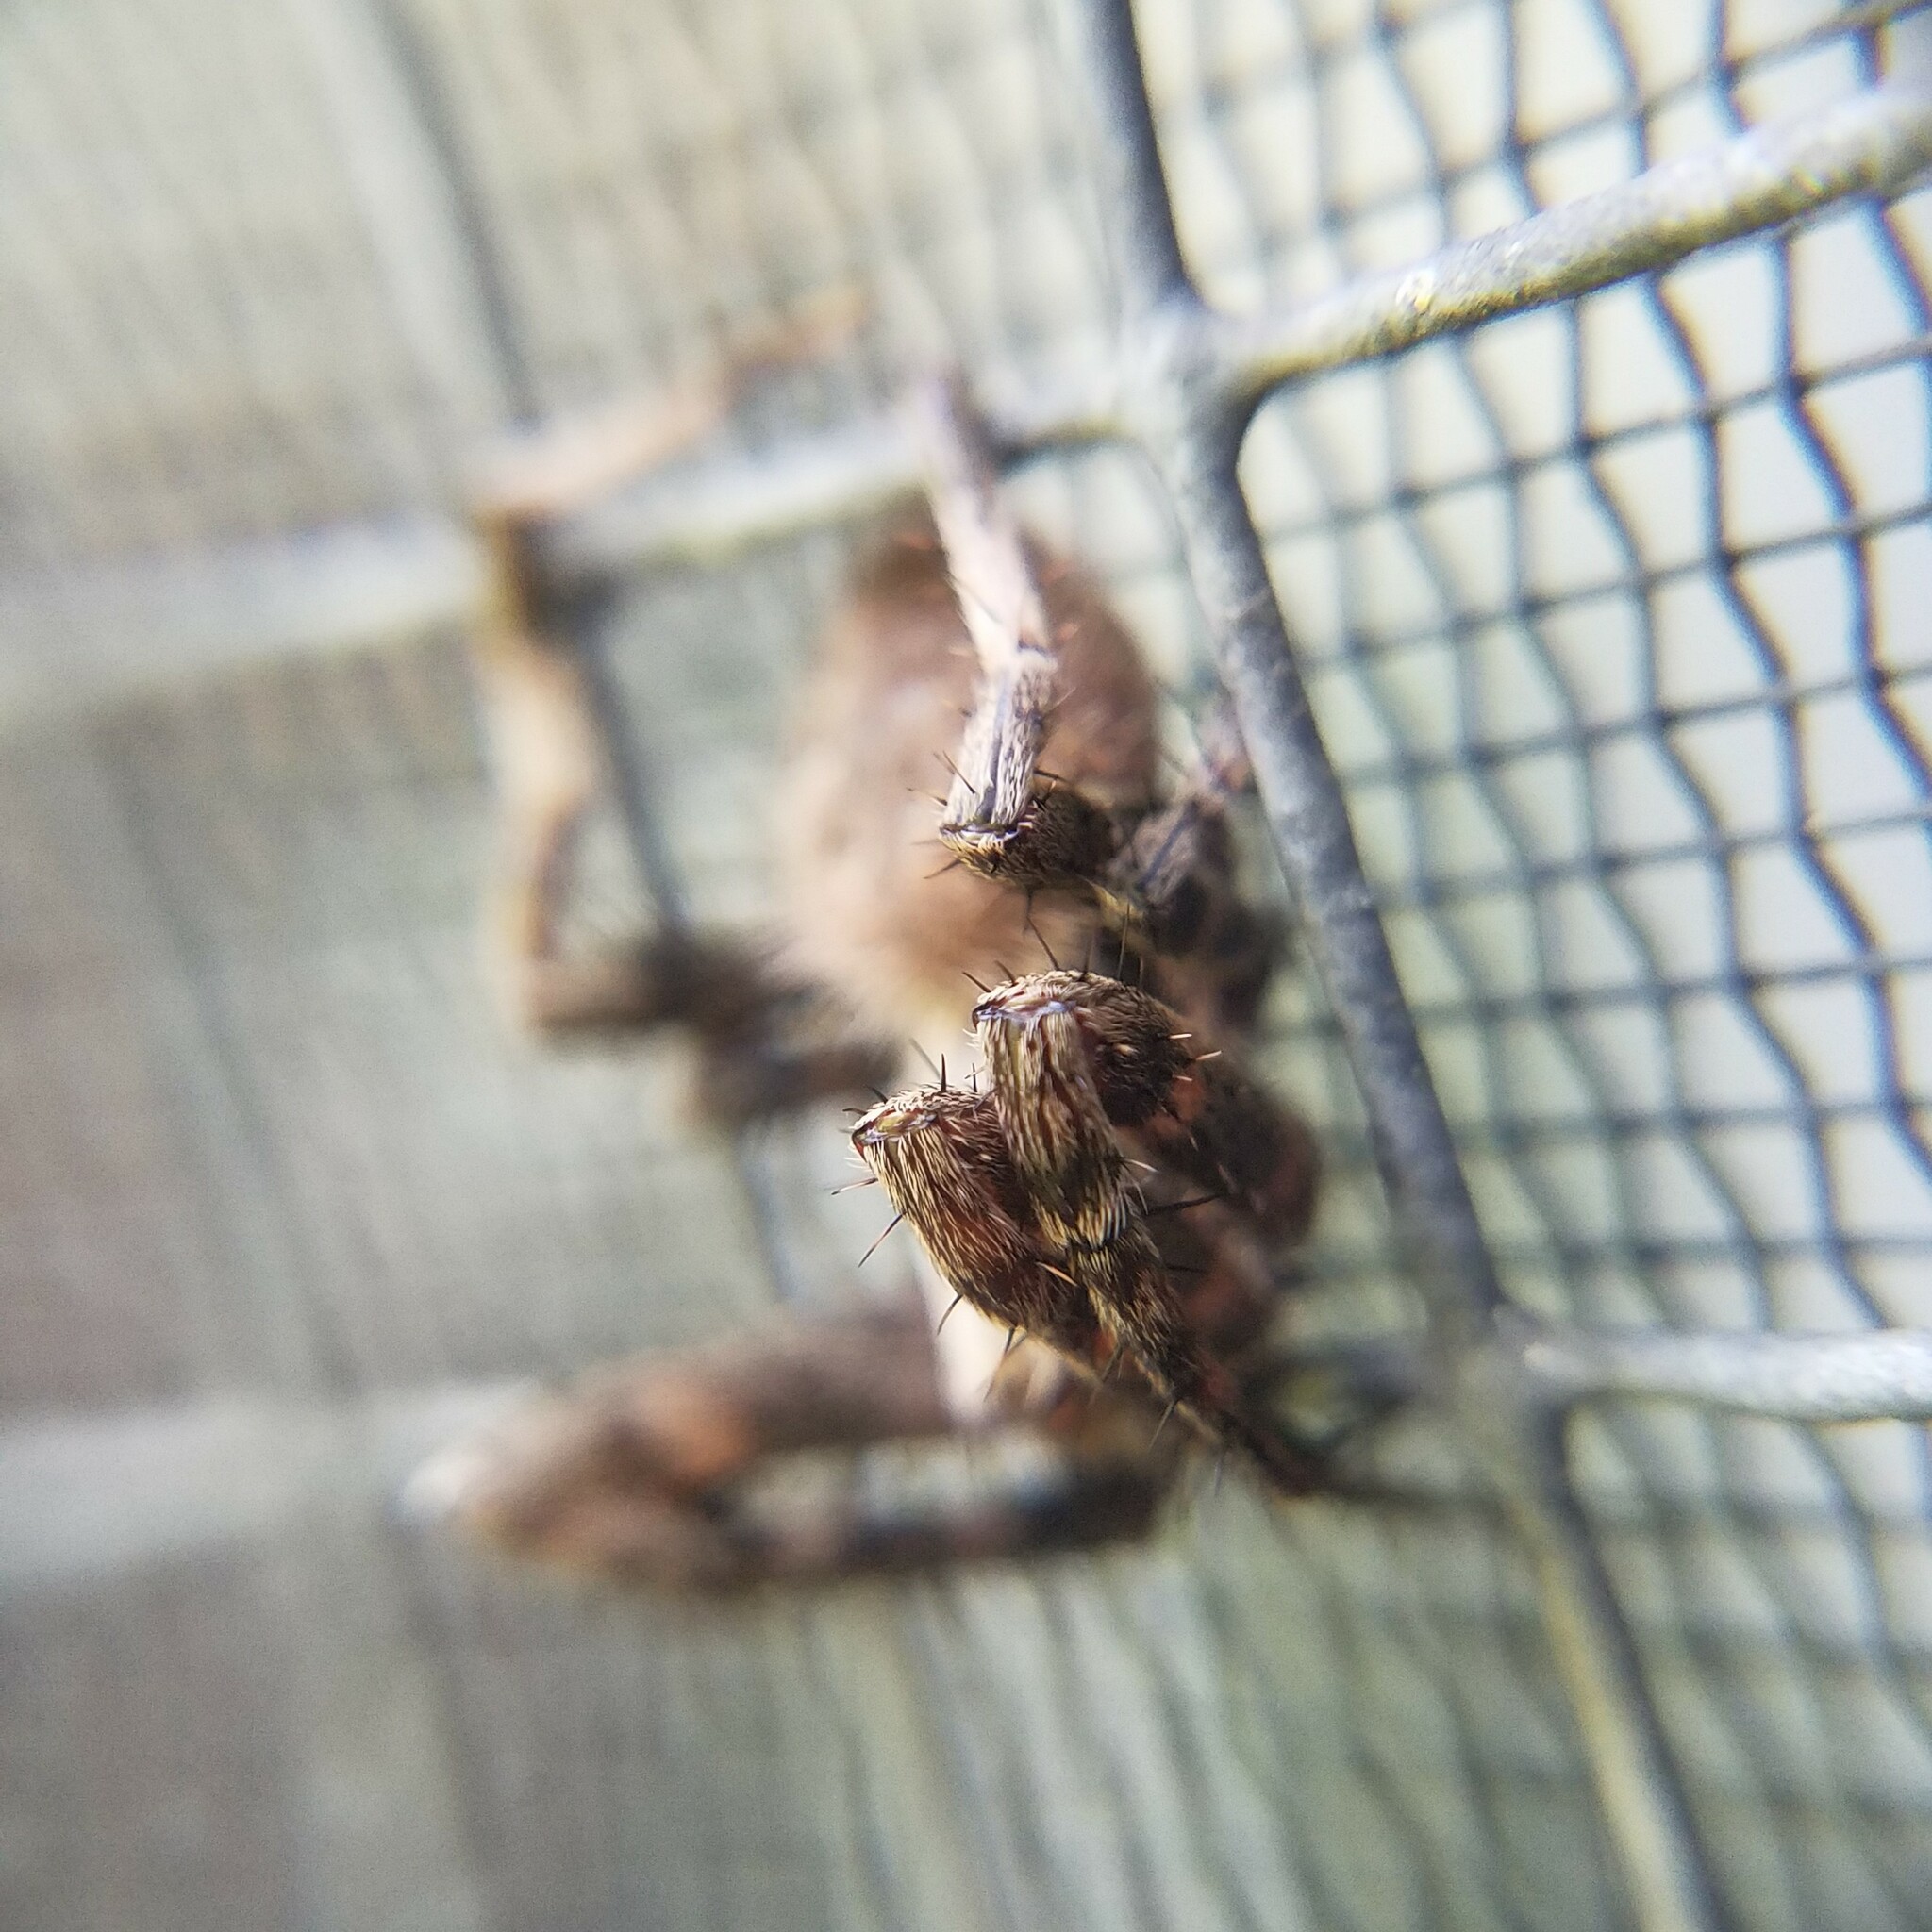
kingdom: Animalia
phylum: Arthropoda
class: Arachnida
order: Araneae
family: Araneidae
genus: Neoscona
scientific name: Neoscona crucifera
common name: Spotted orbweaver
